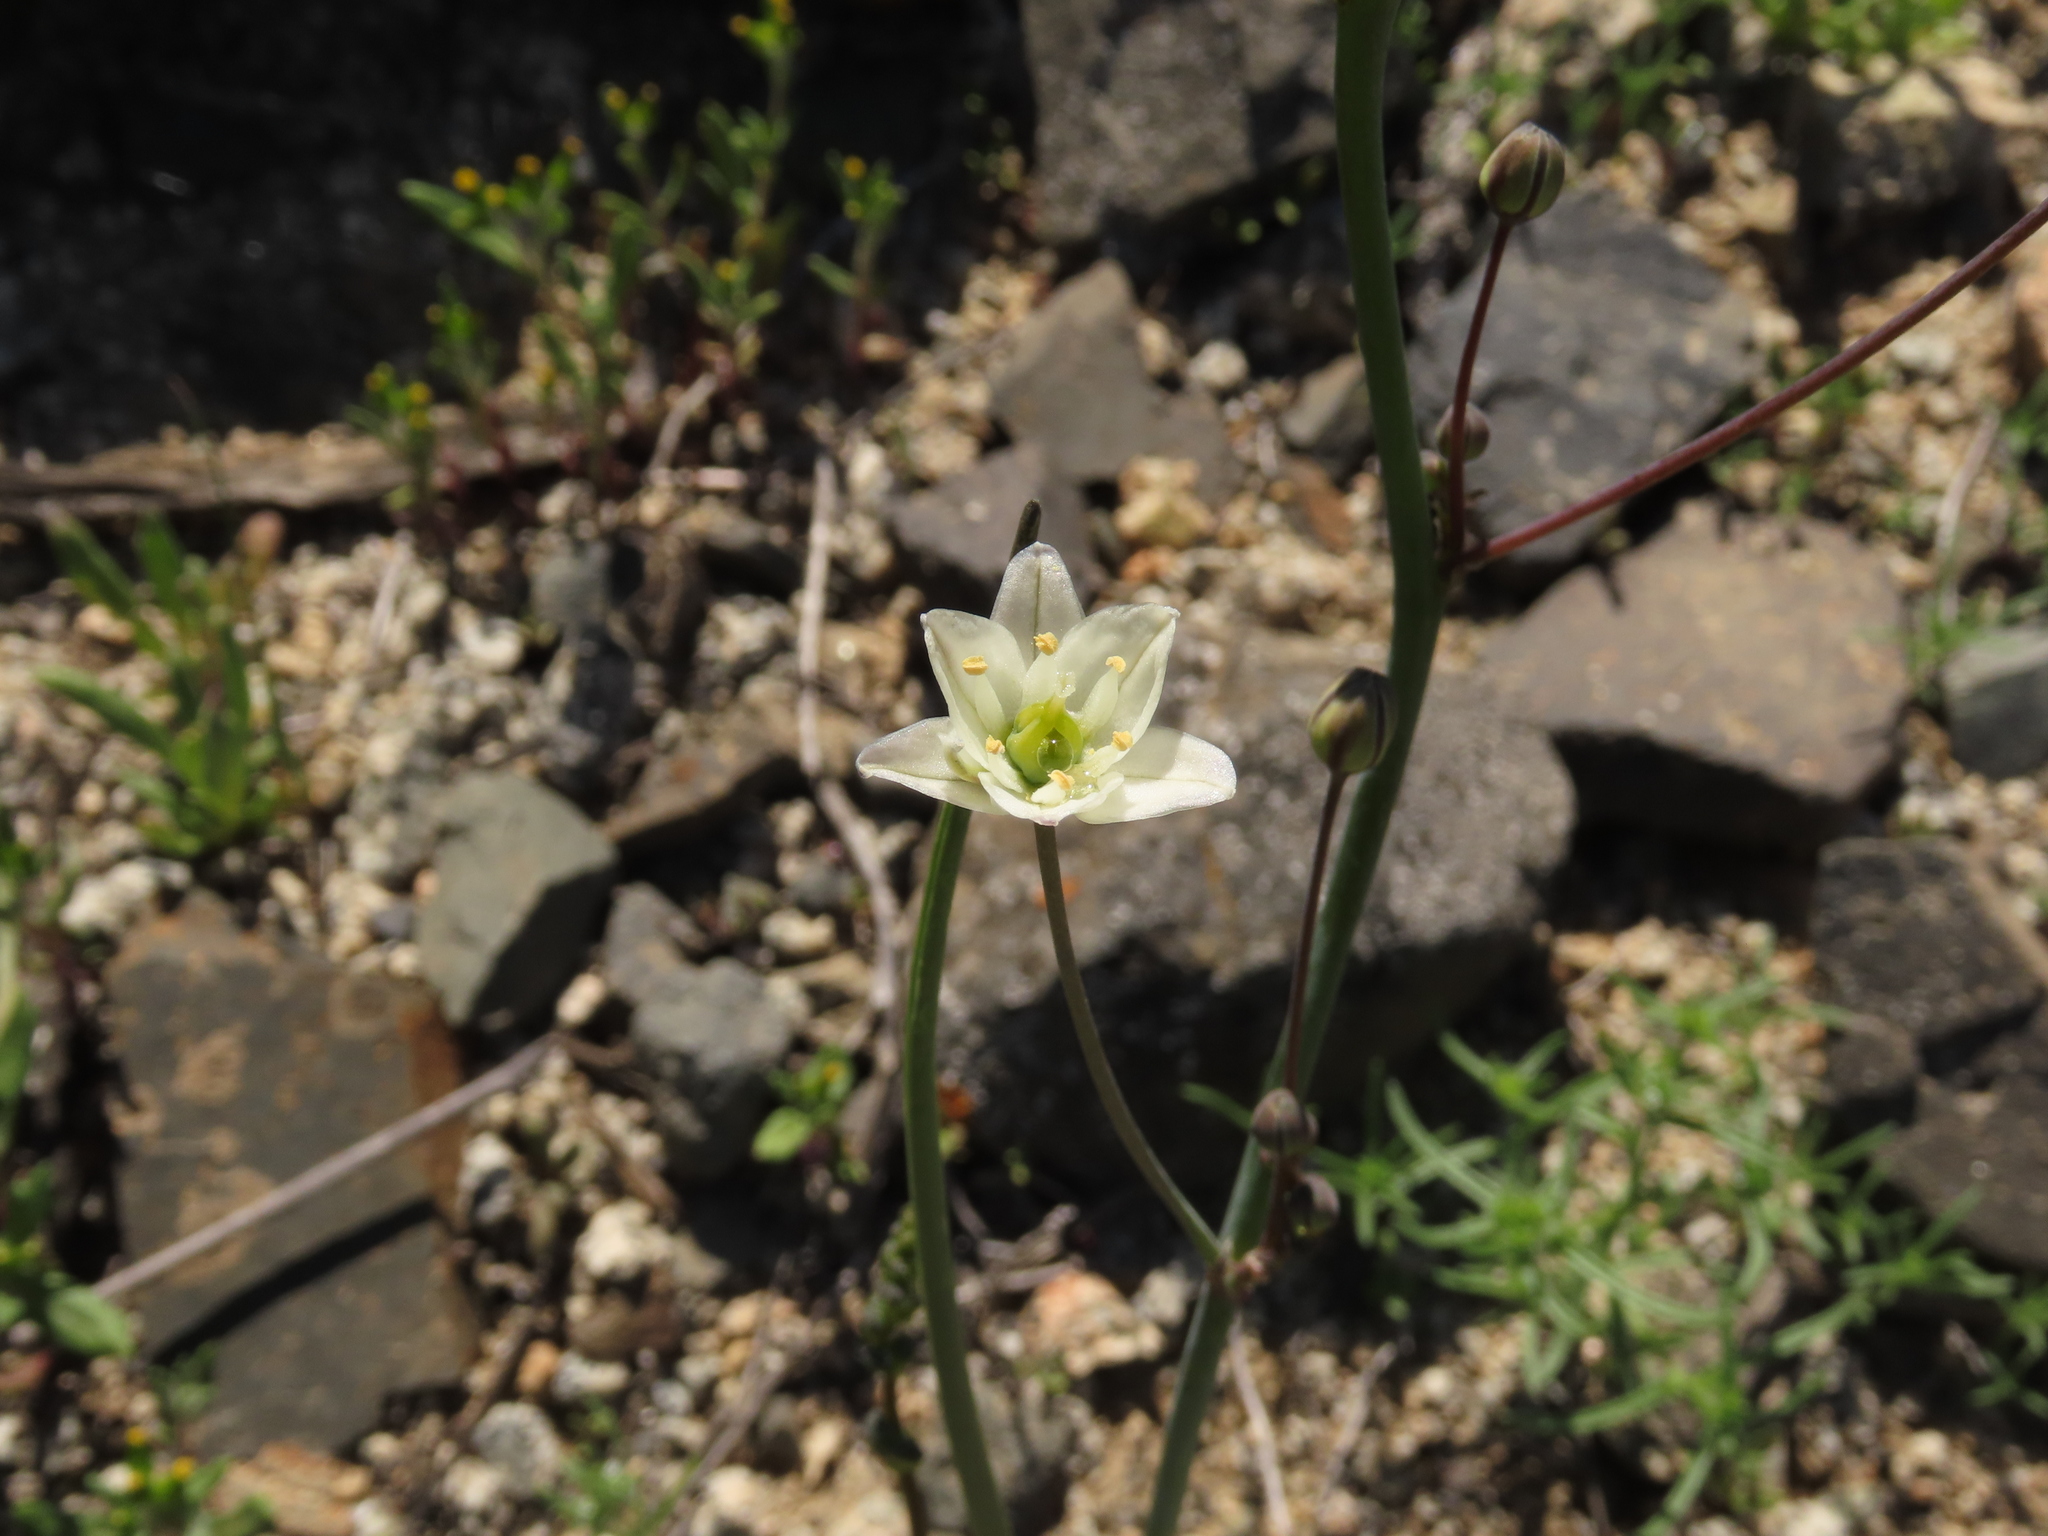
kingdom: Plantae
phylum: Tracheophyta
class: Liliopsida
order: Asparagales
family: Asparagaceae
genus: Oziroe
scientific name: Oziroe arida
